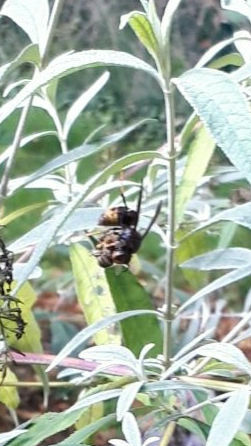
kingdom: Animalia
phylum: Arthropoda
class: Insecta
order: Hymenoptera
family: Vespidae
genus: Vespa
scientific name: Vespa velutina
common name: Asian hornet
